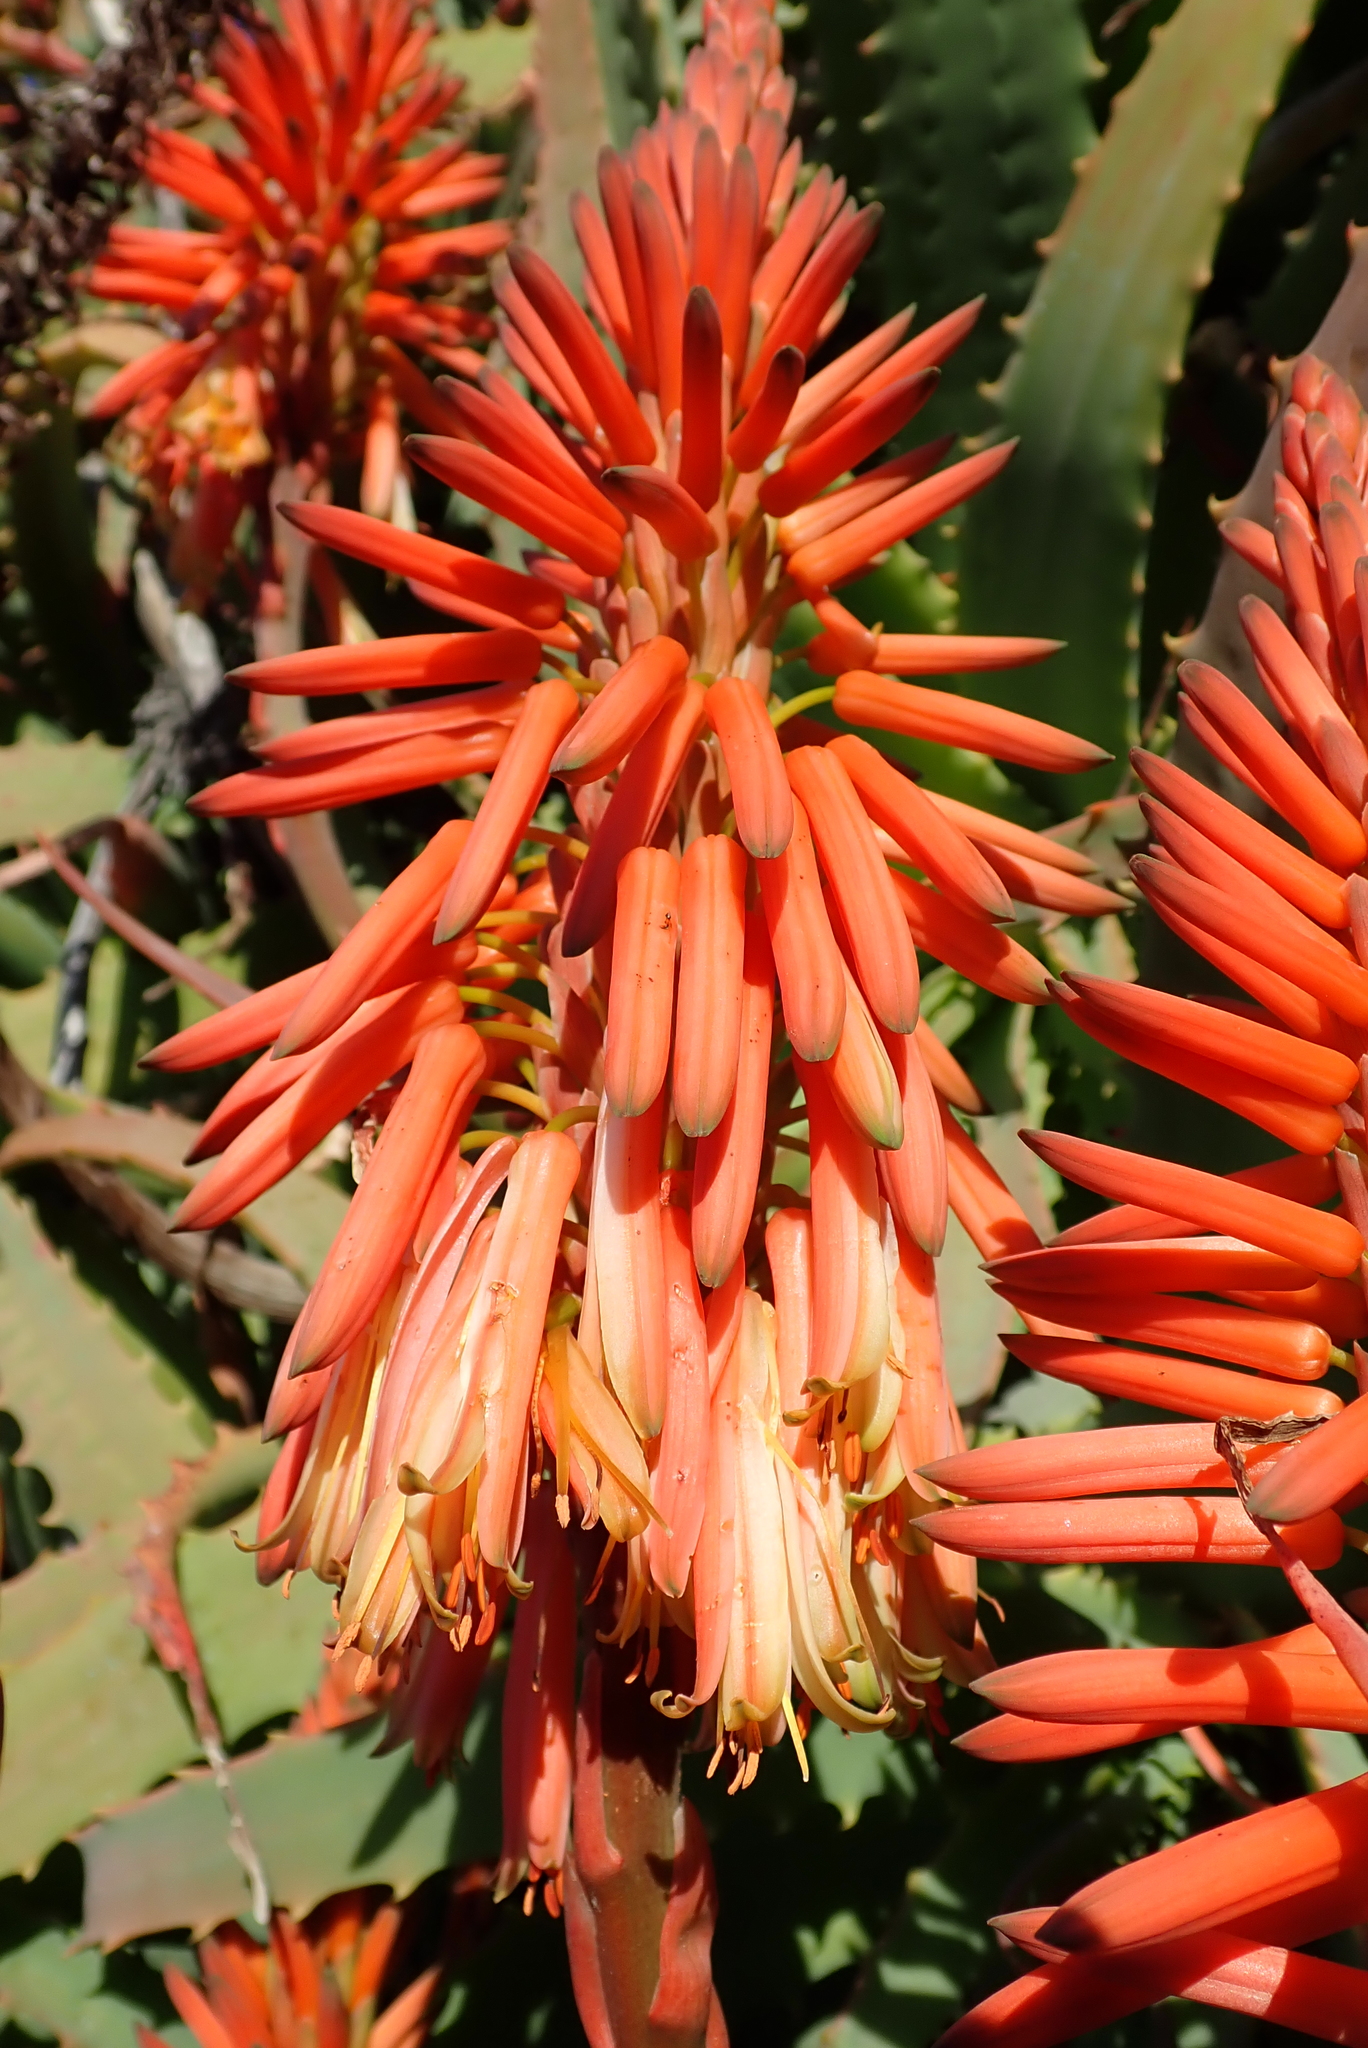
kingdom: Plantae
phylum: Tracheophyta
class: Liliopsida
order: Asparagales
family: Asphodelaceae
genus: Aloe
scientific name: Aloe arborescens
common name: Candelabra aloe
